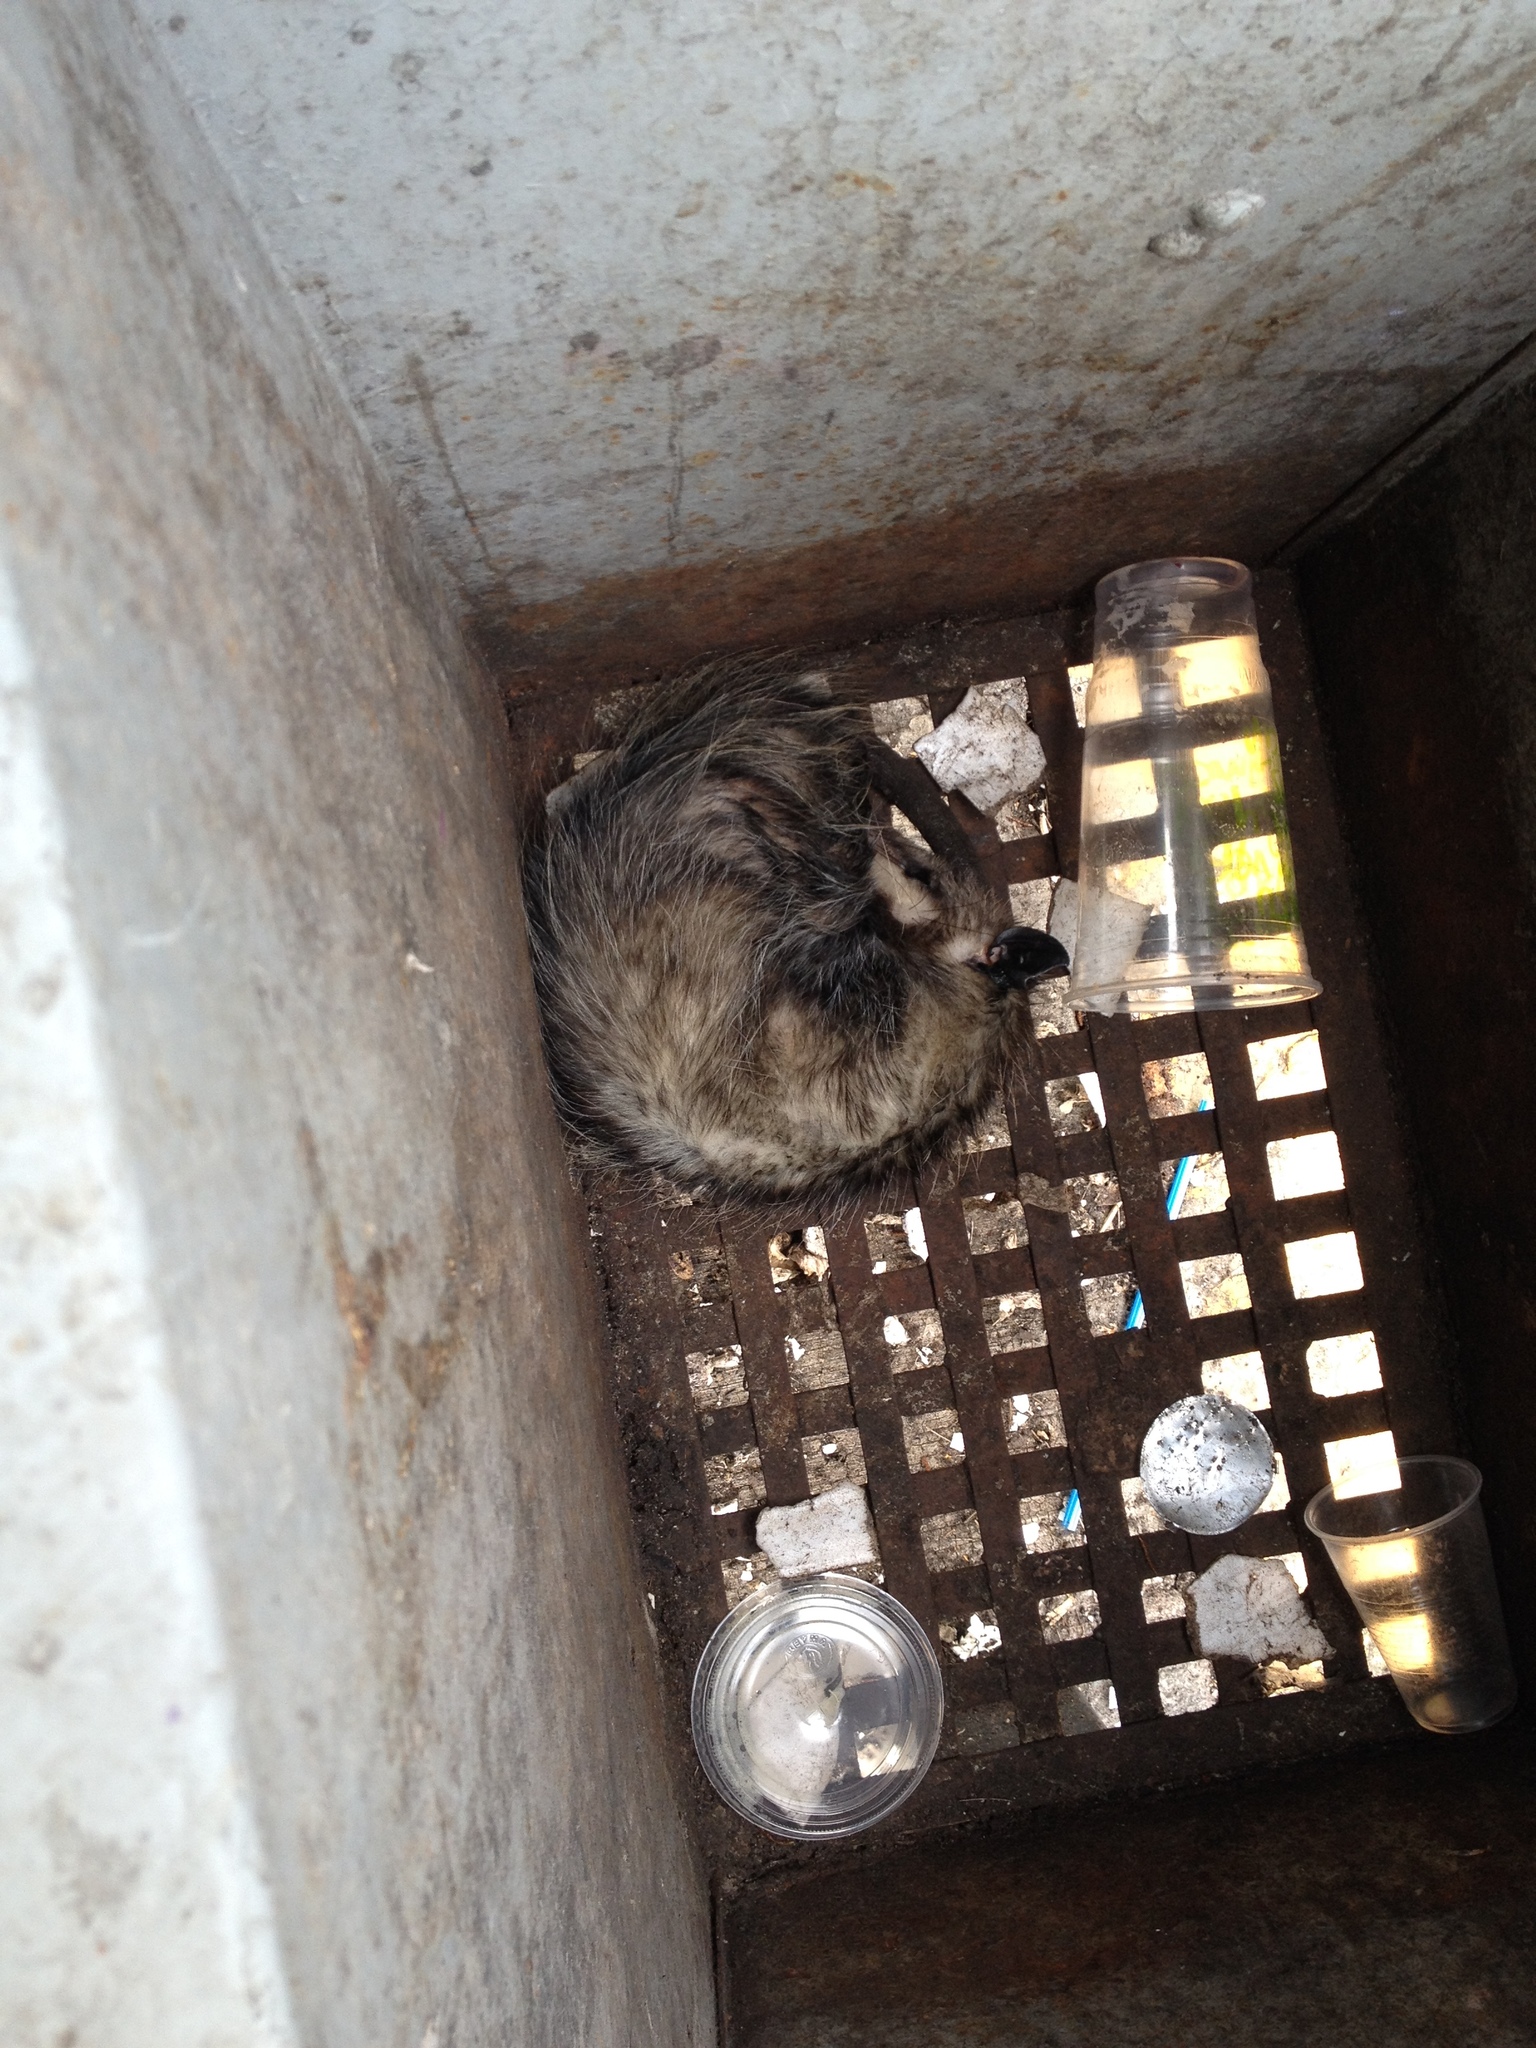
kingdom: Animalia
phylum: Chordata
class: Mammalia
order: Didelphimorphia
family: Didelphidae
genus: Didelphis
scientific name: Didelphis virginiana
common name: Virginia opossum
